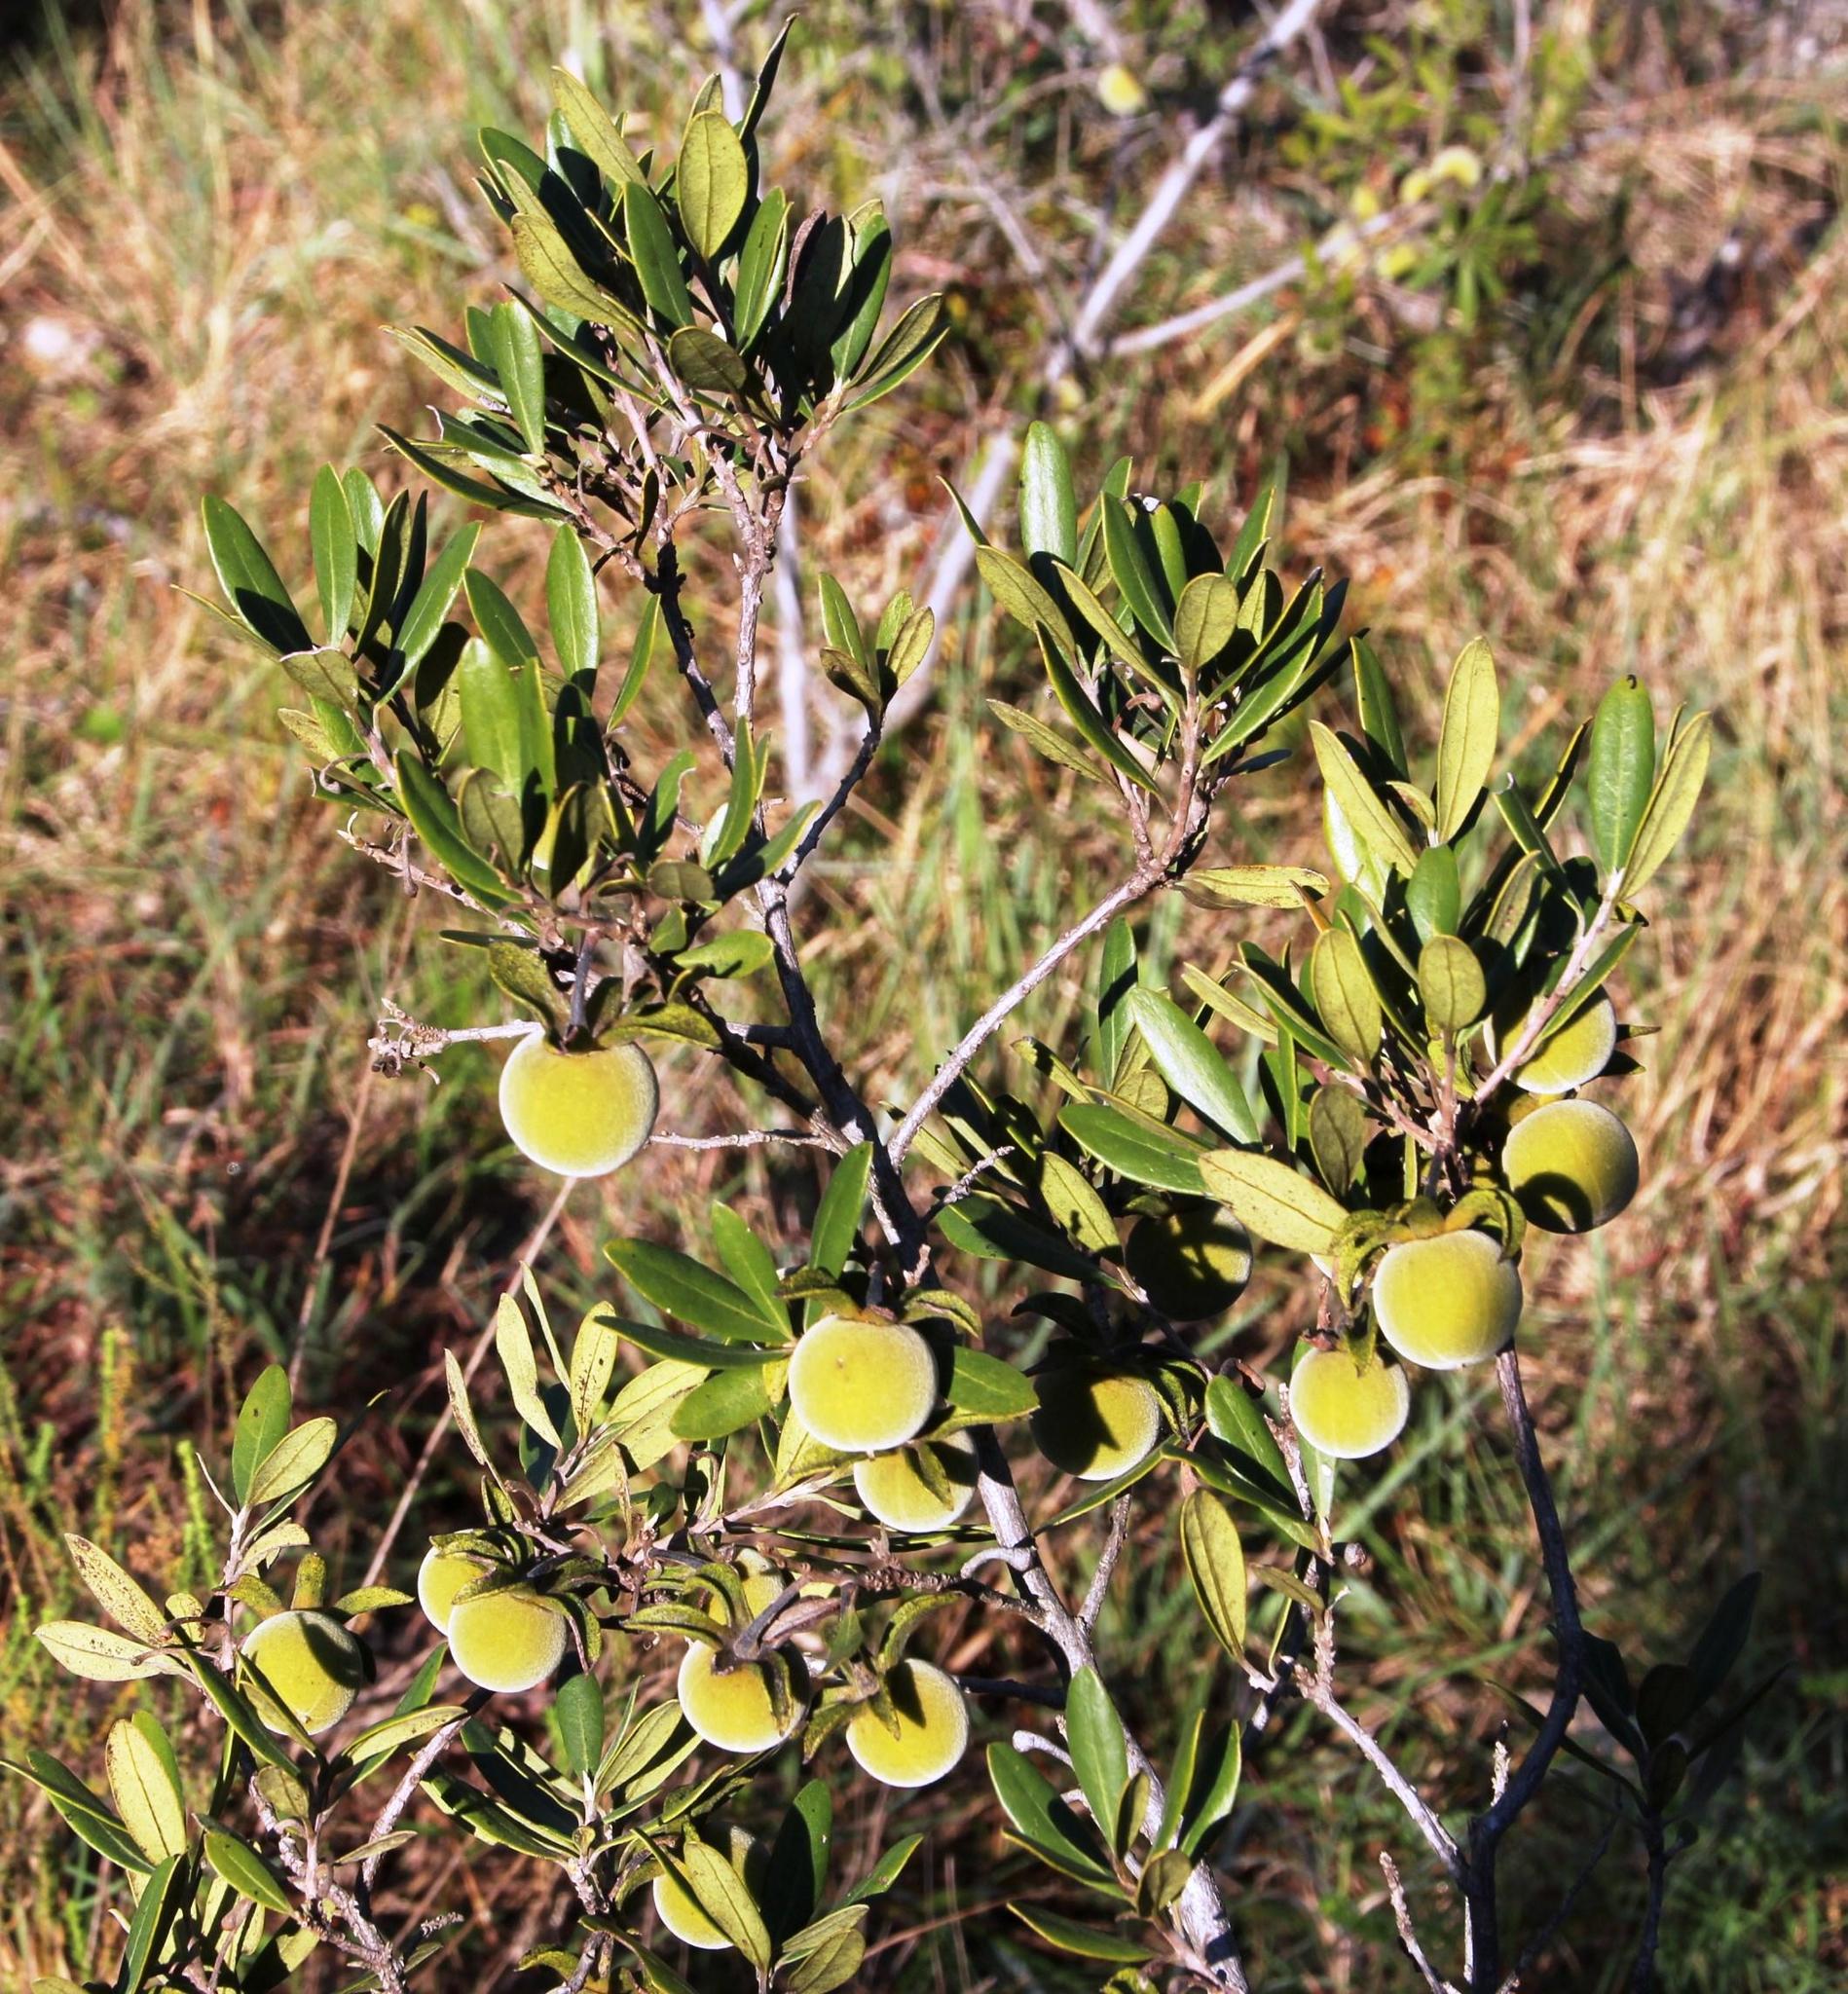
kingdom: Plantae
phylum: Tracheophyta
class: Magnoliopsida
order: Ericales
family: Ebenaceae
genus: Diospyros
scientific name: Diospyros dichrophylla
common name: Common star-apple
